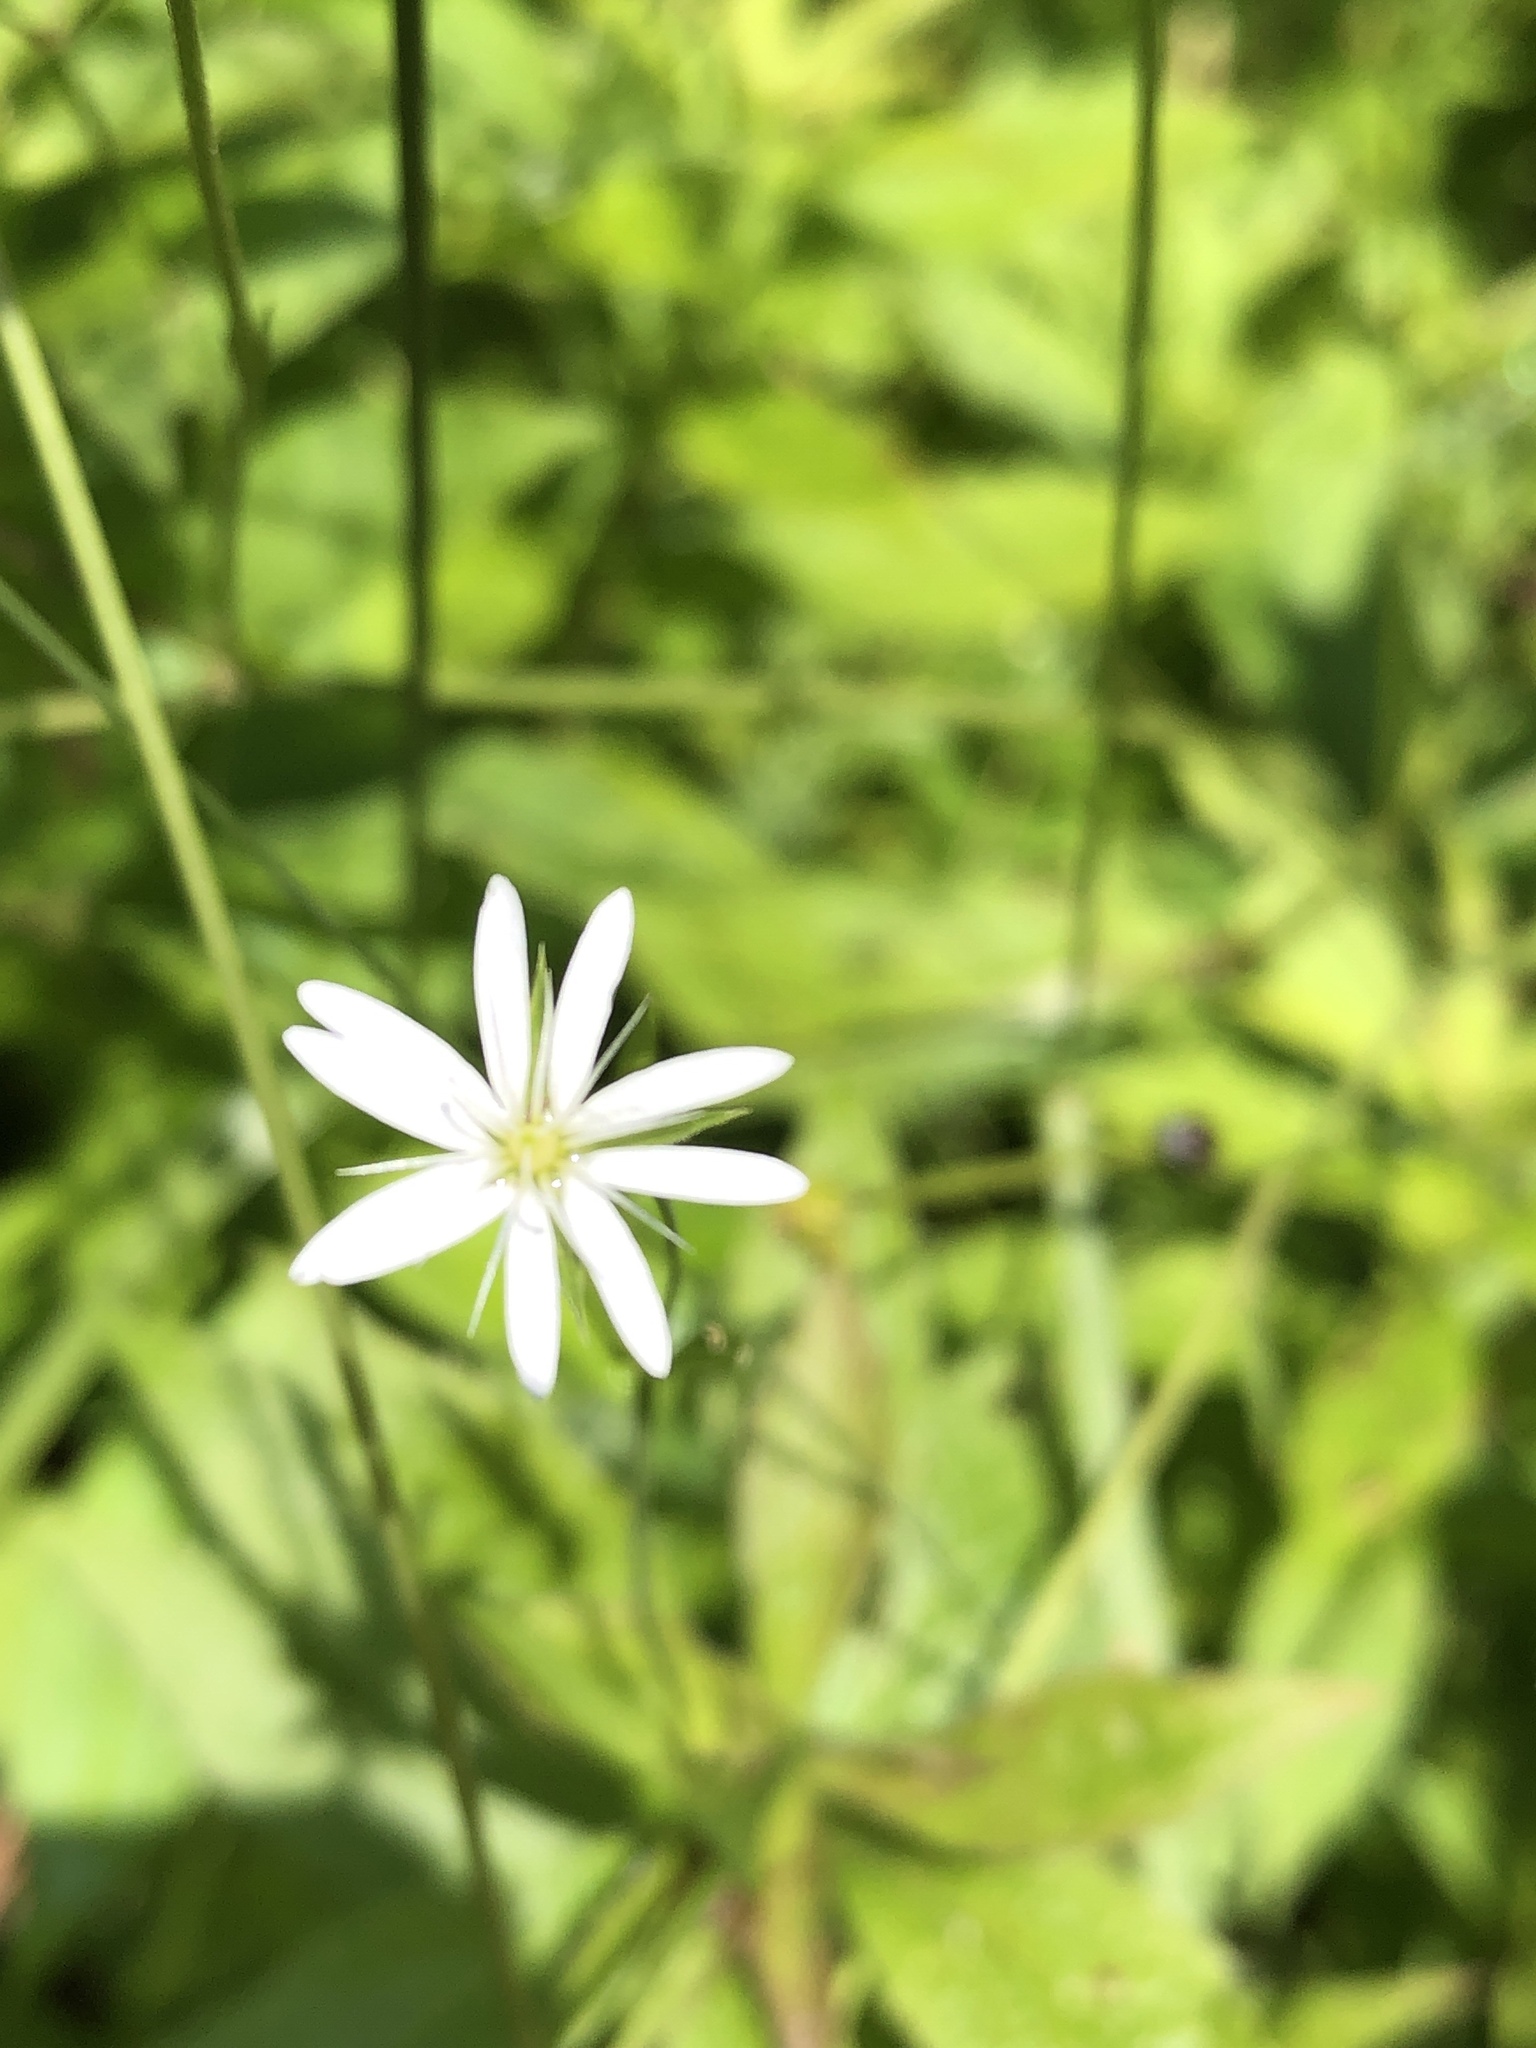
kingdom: Plantae
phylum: Tracheophyta
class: Magnoliopsida
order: Caryophyllales
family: Caryophyllaceae
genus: Stellaria
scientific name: Stellaria graminea
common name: Grass-like starwort
